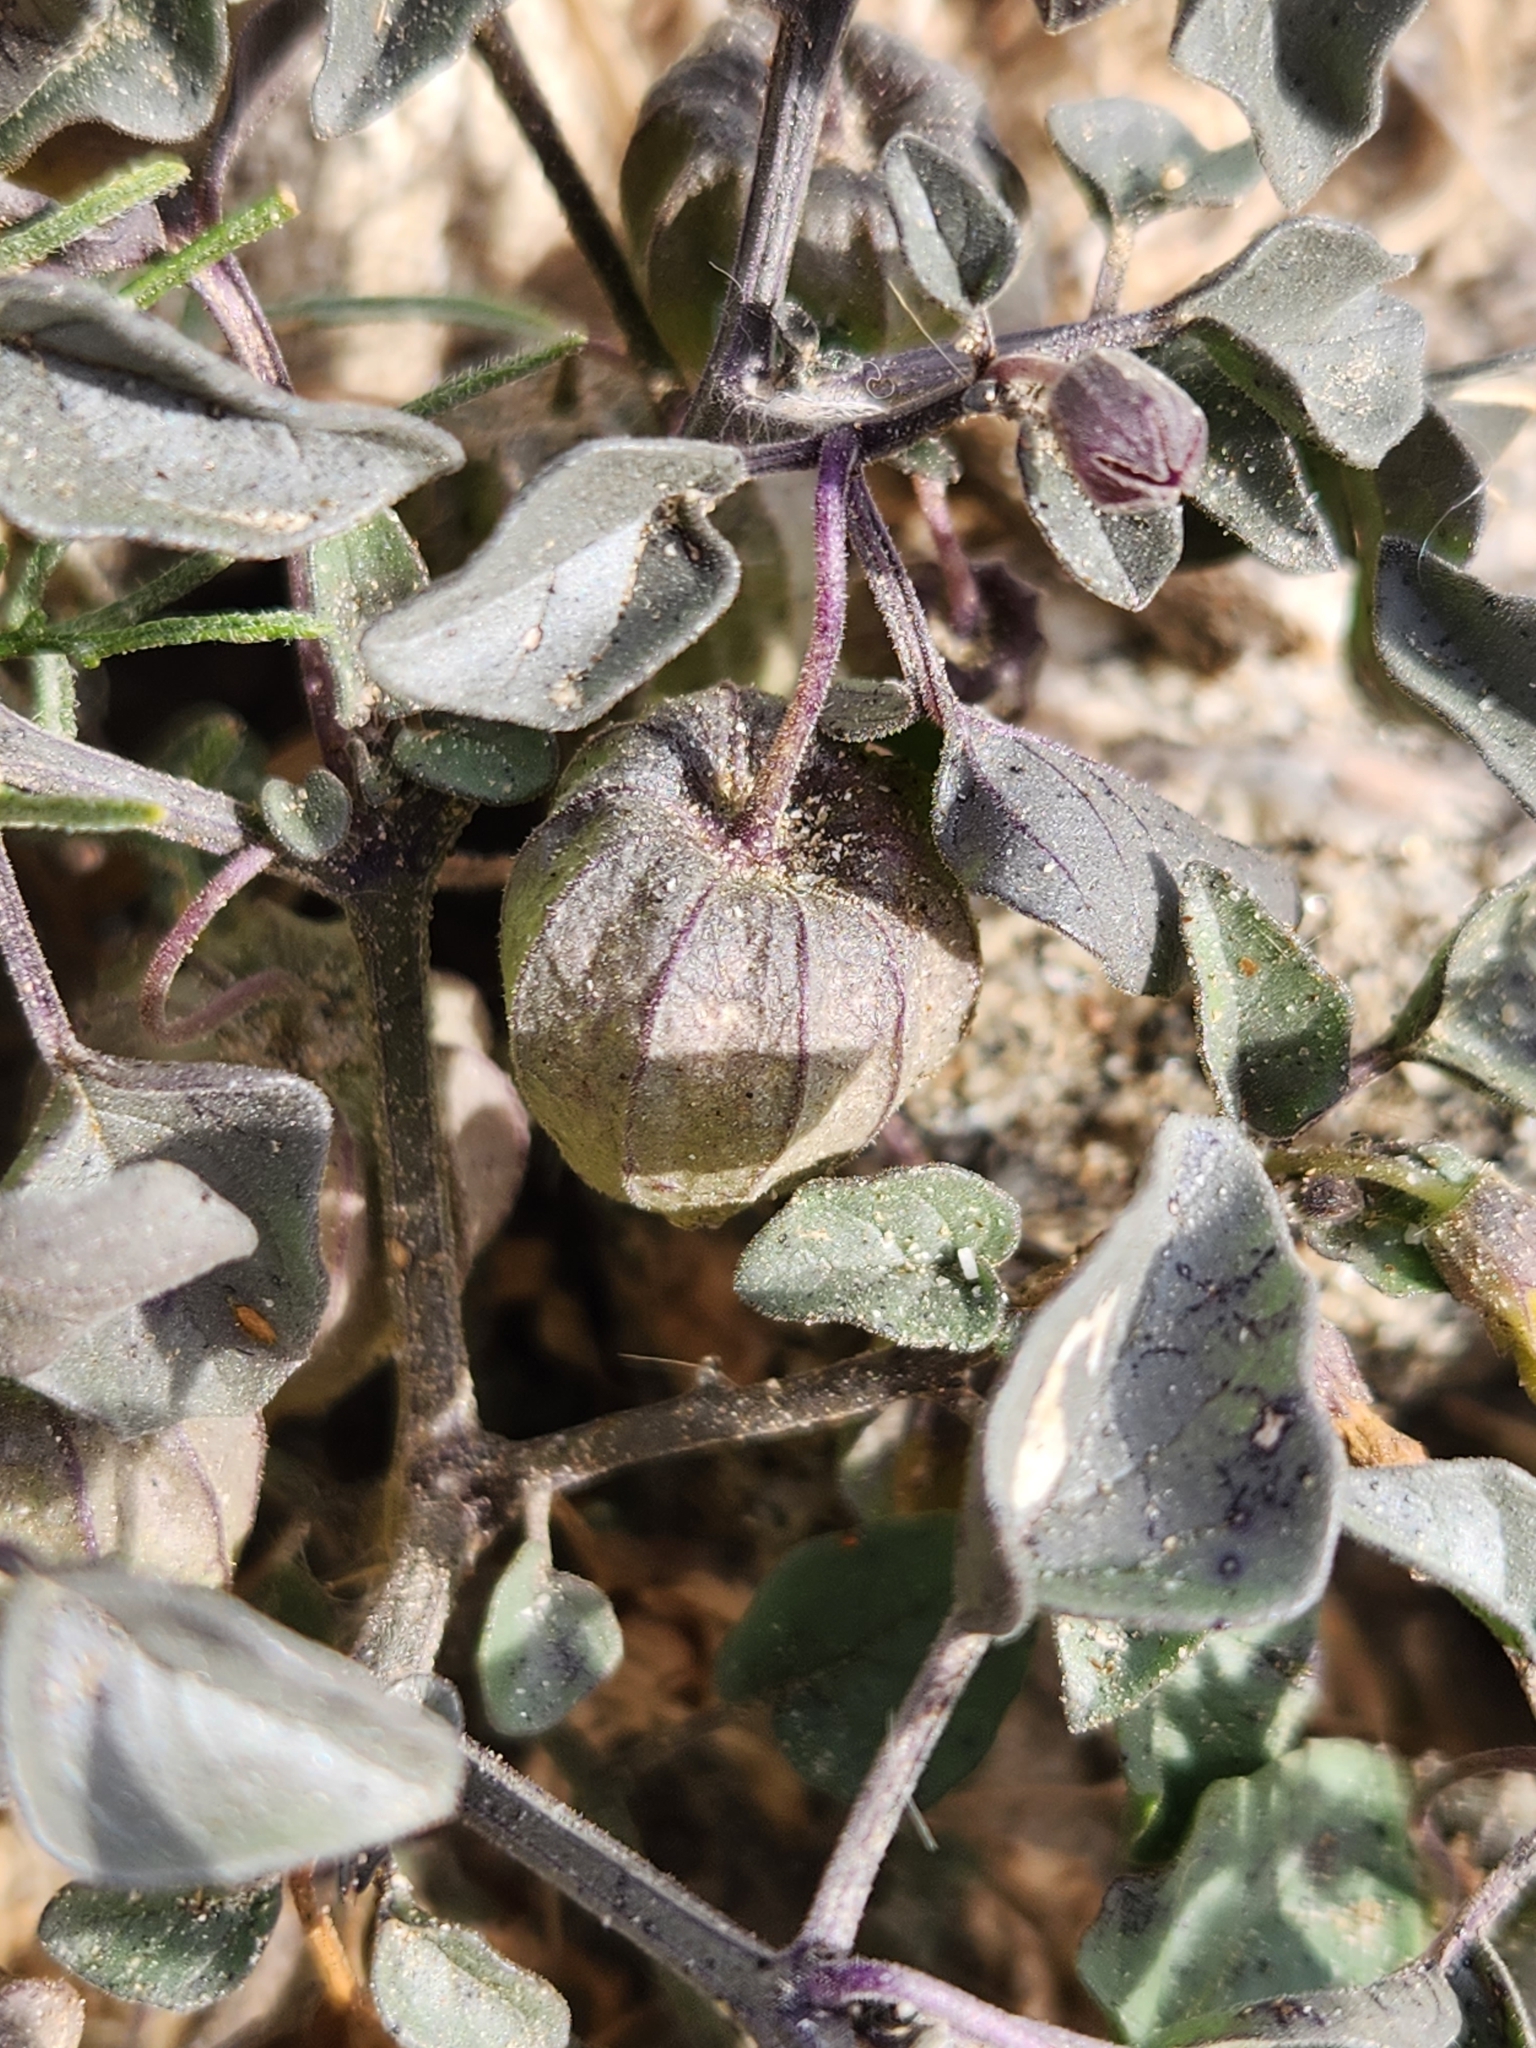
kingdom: Plantae
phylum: Tracheophyta
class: Magnoliopsida
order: Solanales
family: Solanaceae
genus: Physalis
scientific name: Physalis crassifolia
